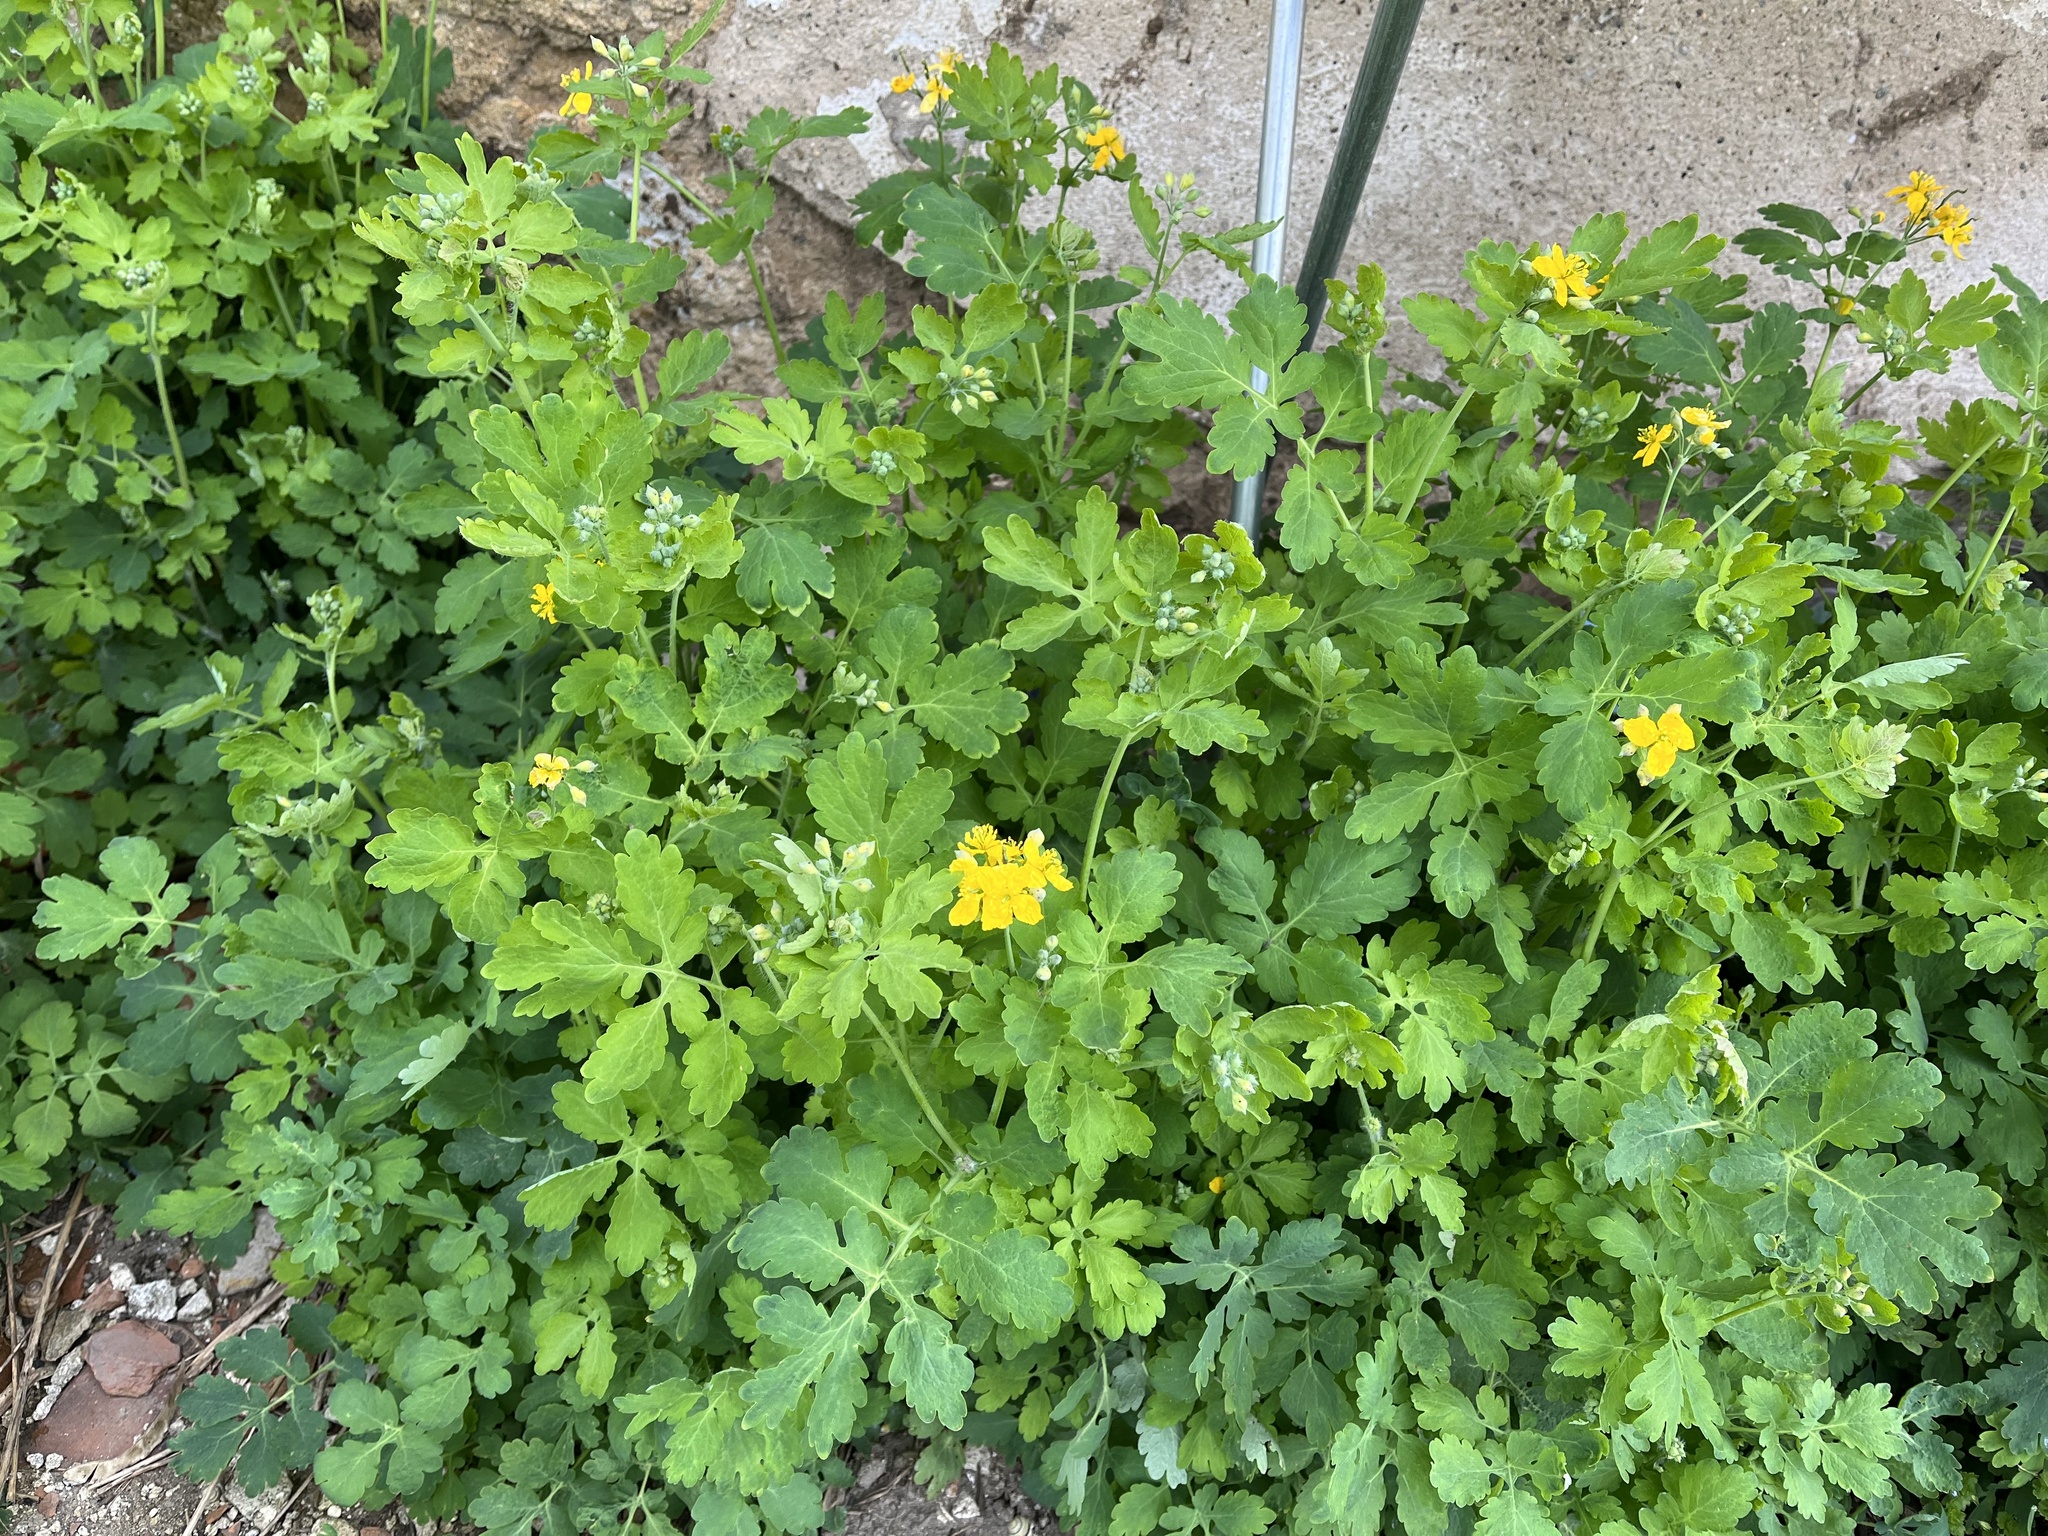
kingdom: Plantae
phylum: Tracheophyta
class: Magnoliopsida
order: Ranunculales
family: Papaveraceae
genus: Chelidonium
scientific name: Chelidonium majus
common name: Greater celandine
